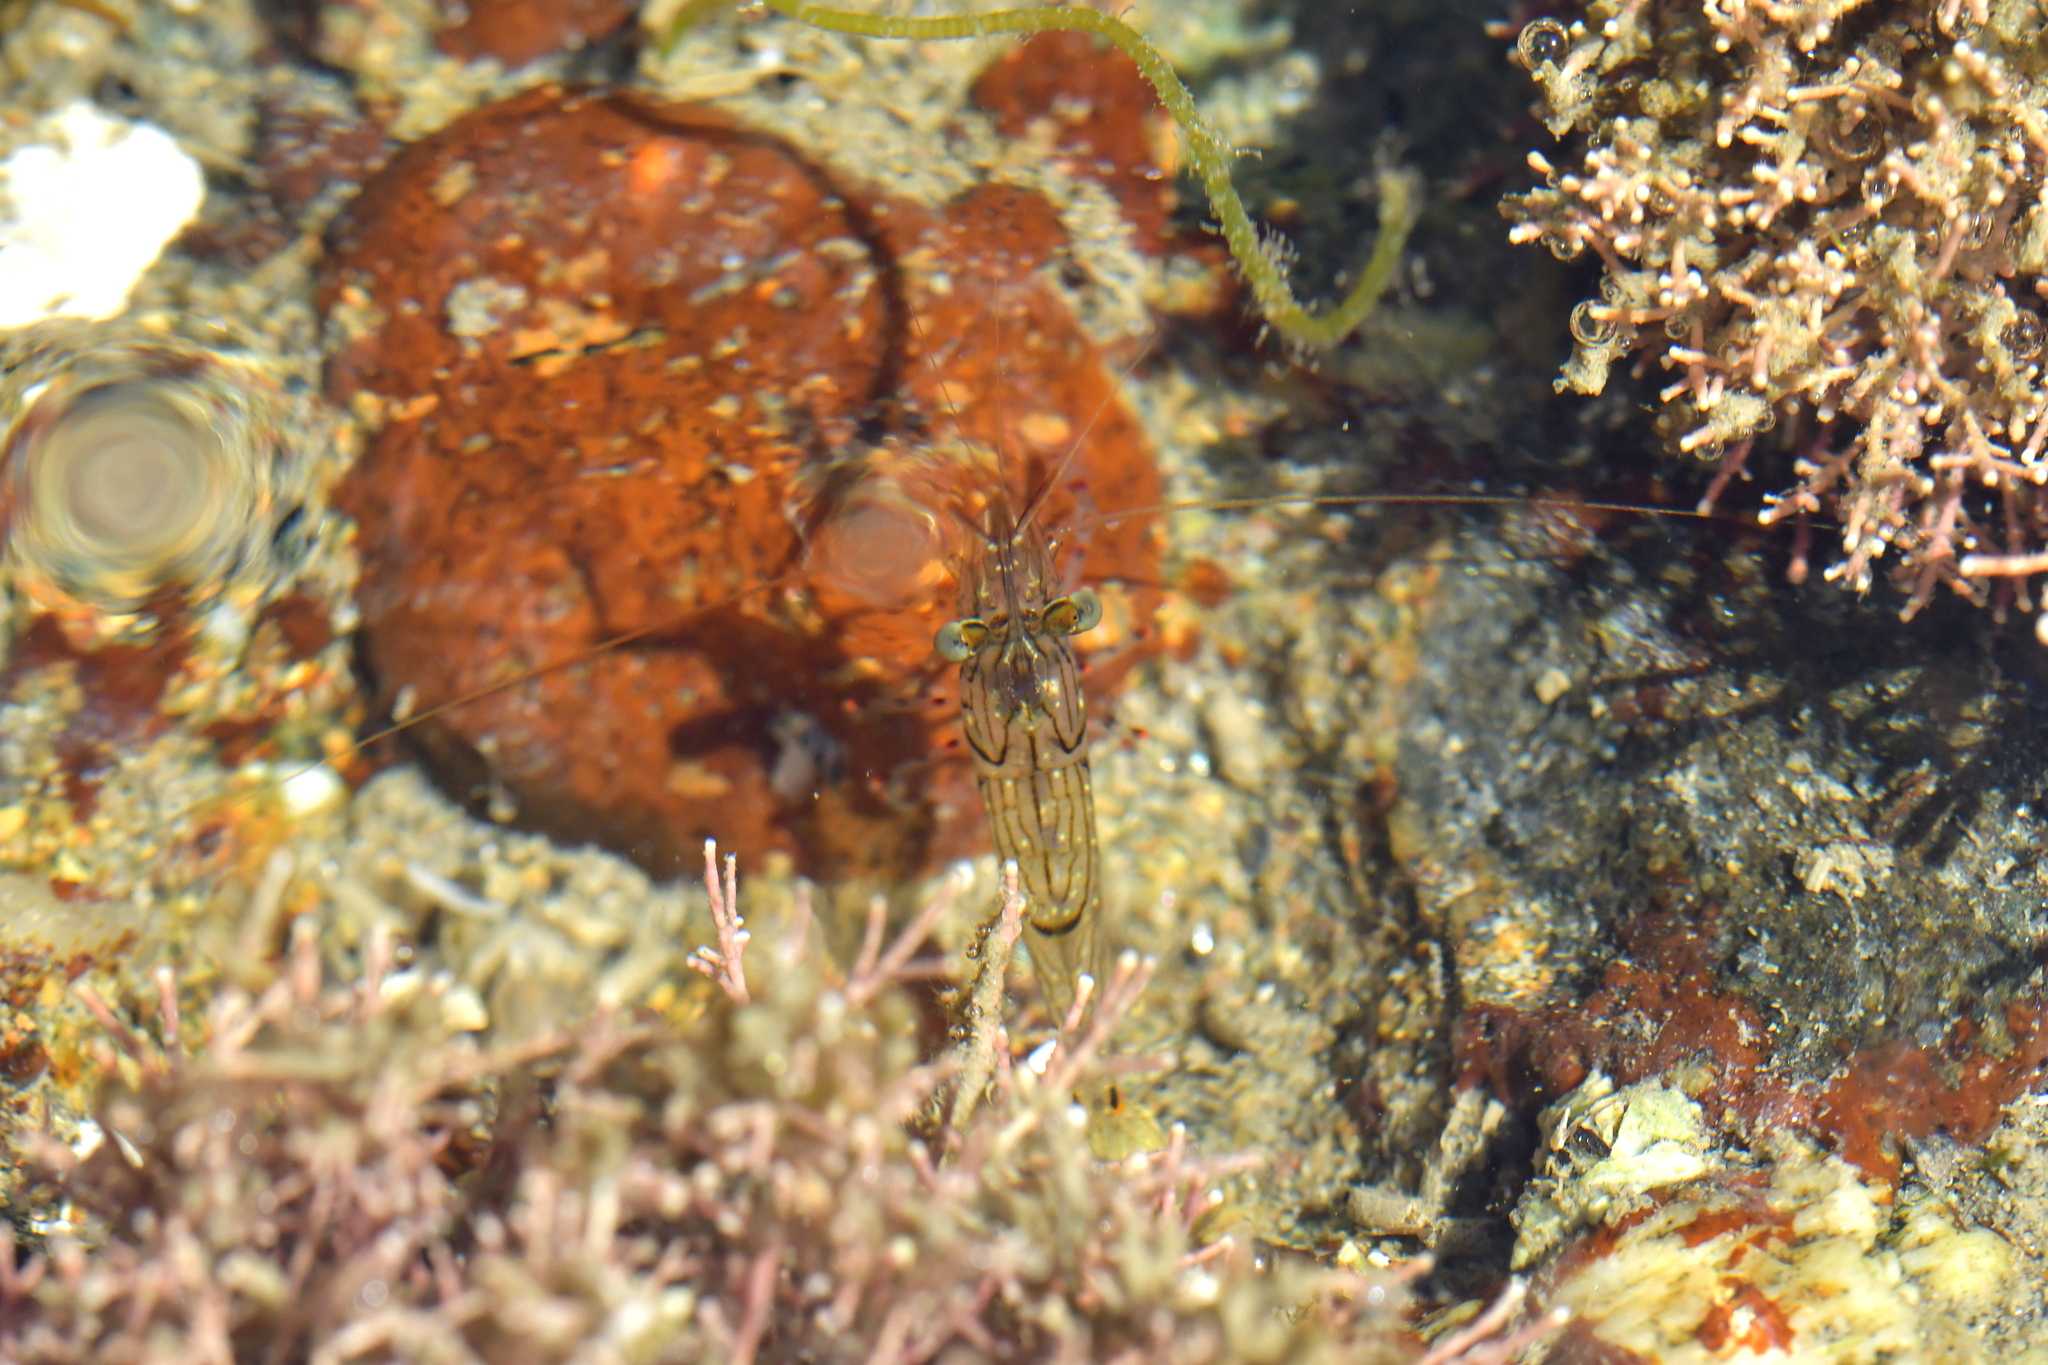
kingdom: Animalia
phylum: Arthropoda
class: Malacostraca
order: Decapoda
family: Palaemonidae
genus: Palaemon
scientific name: Palaemon affinis
